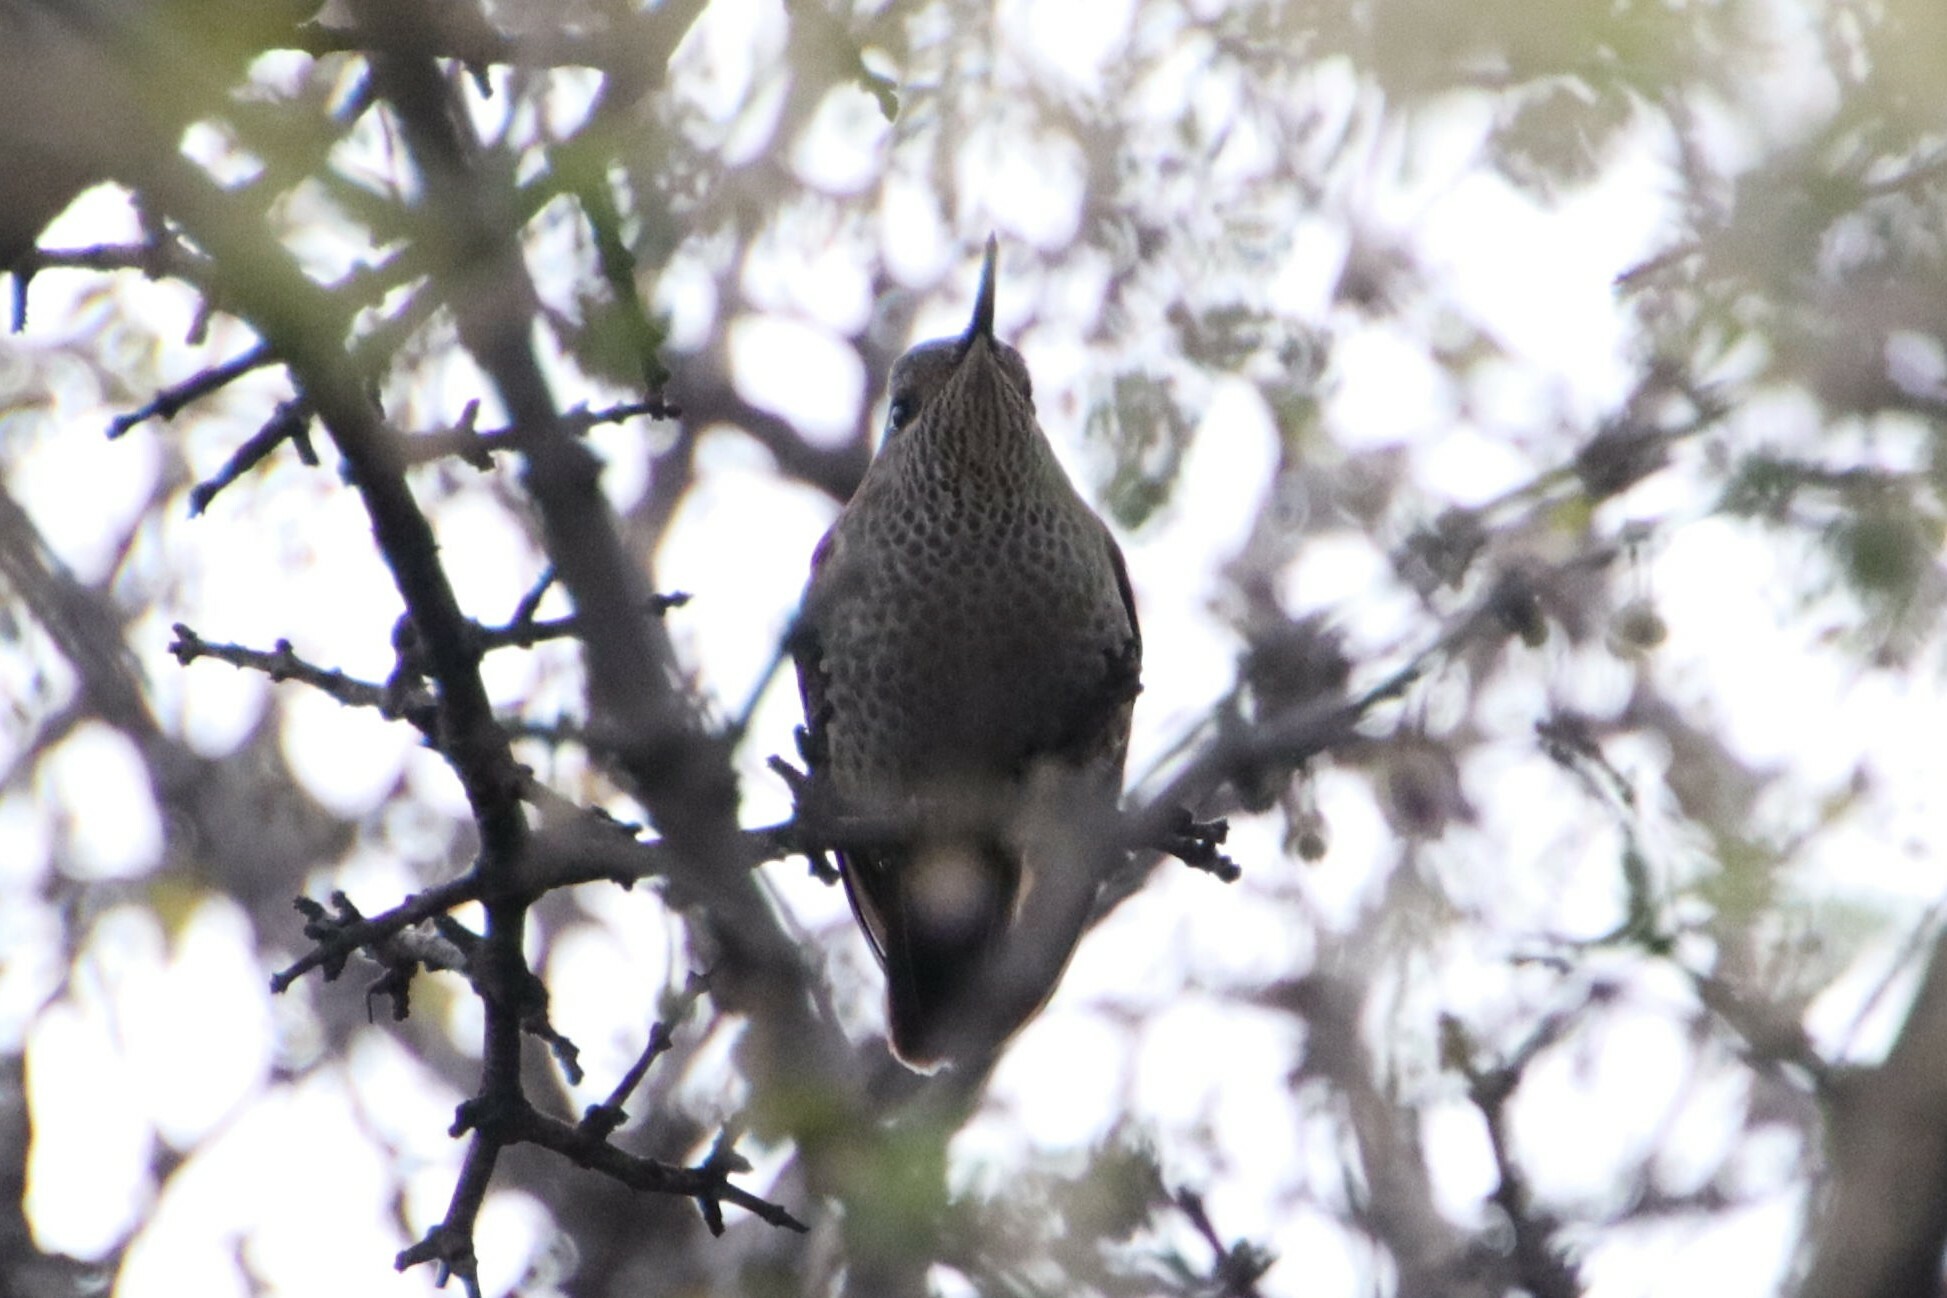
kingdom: Animalia
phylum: Chordata
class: Aves
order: Apodiformes
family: Trochilidae
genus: Sephanoides
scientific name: Sephanoides sephaniodes
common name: Green-backed firecrown
